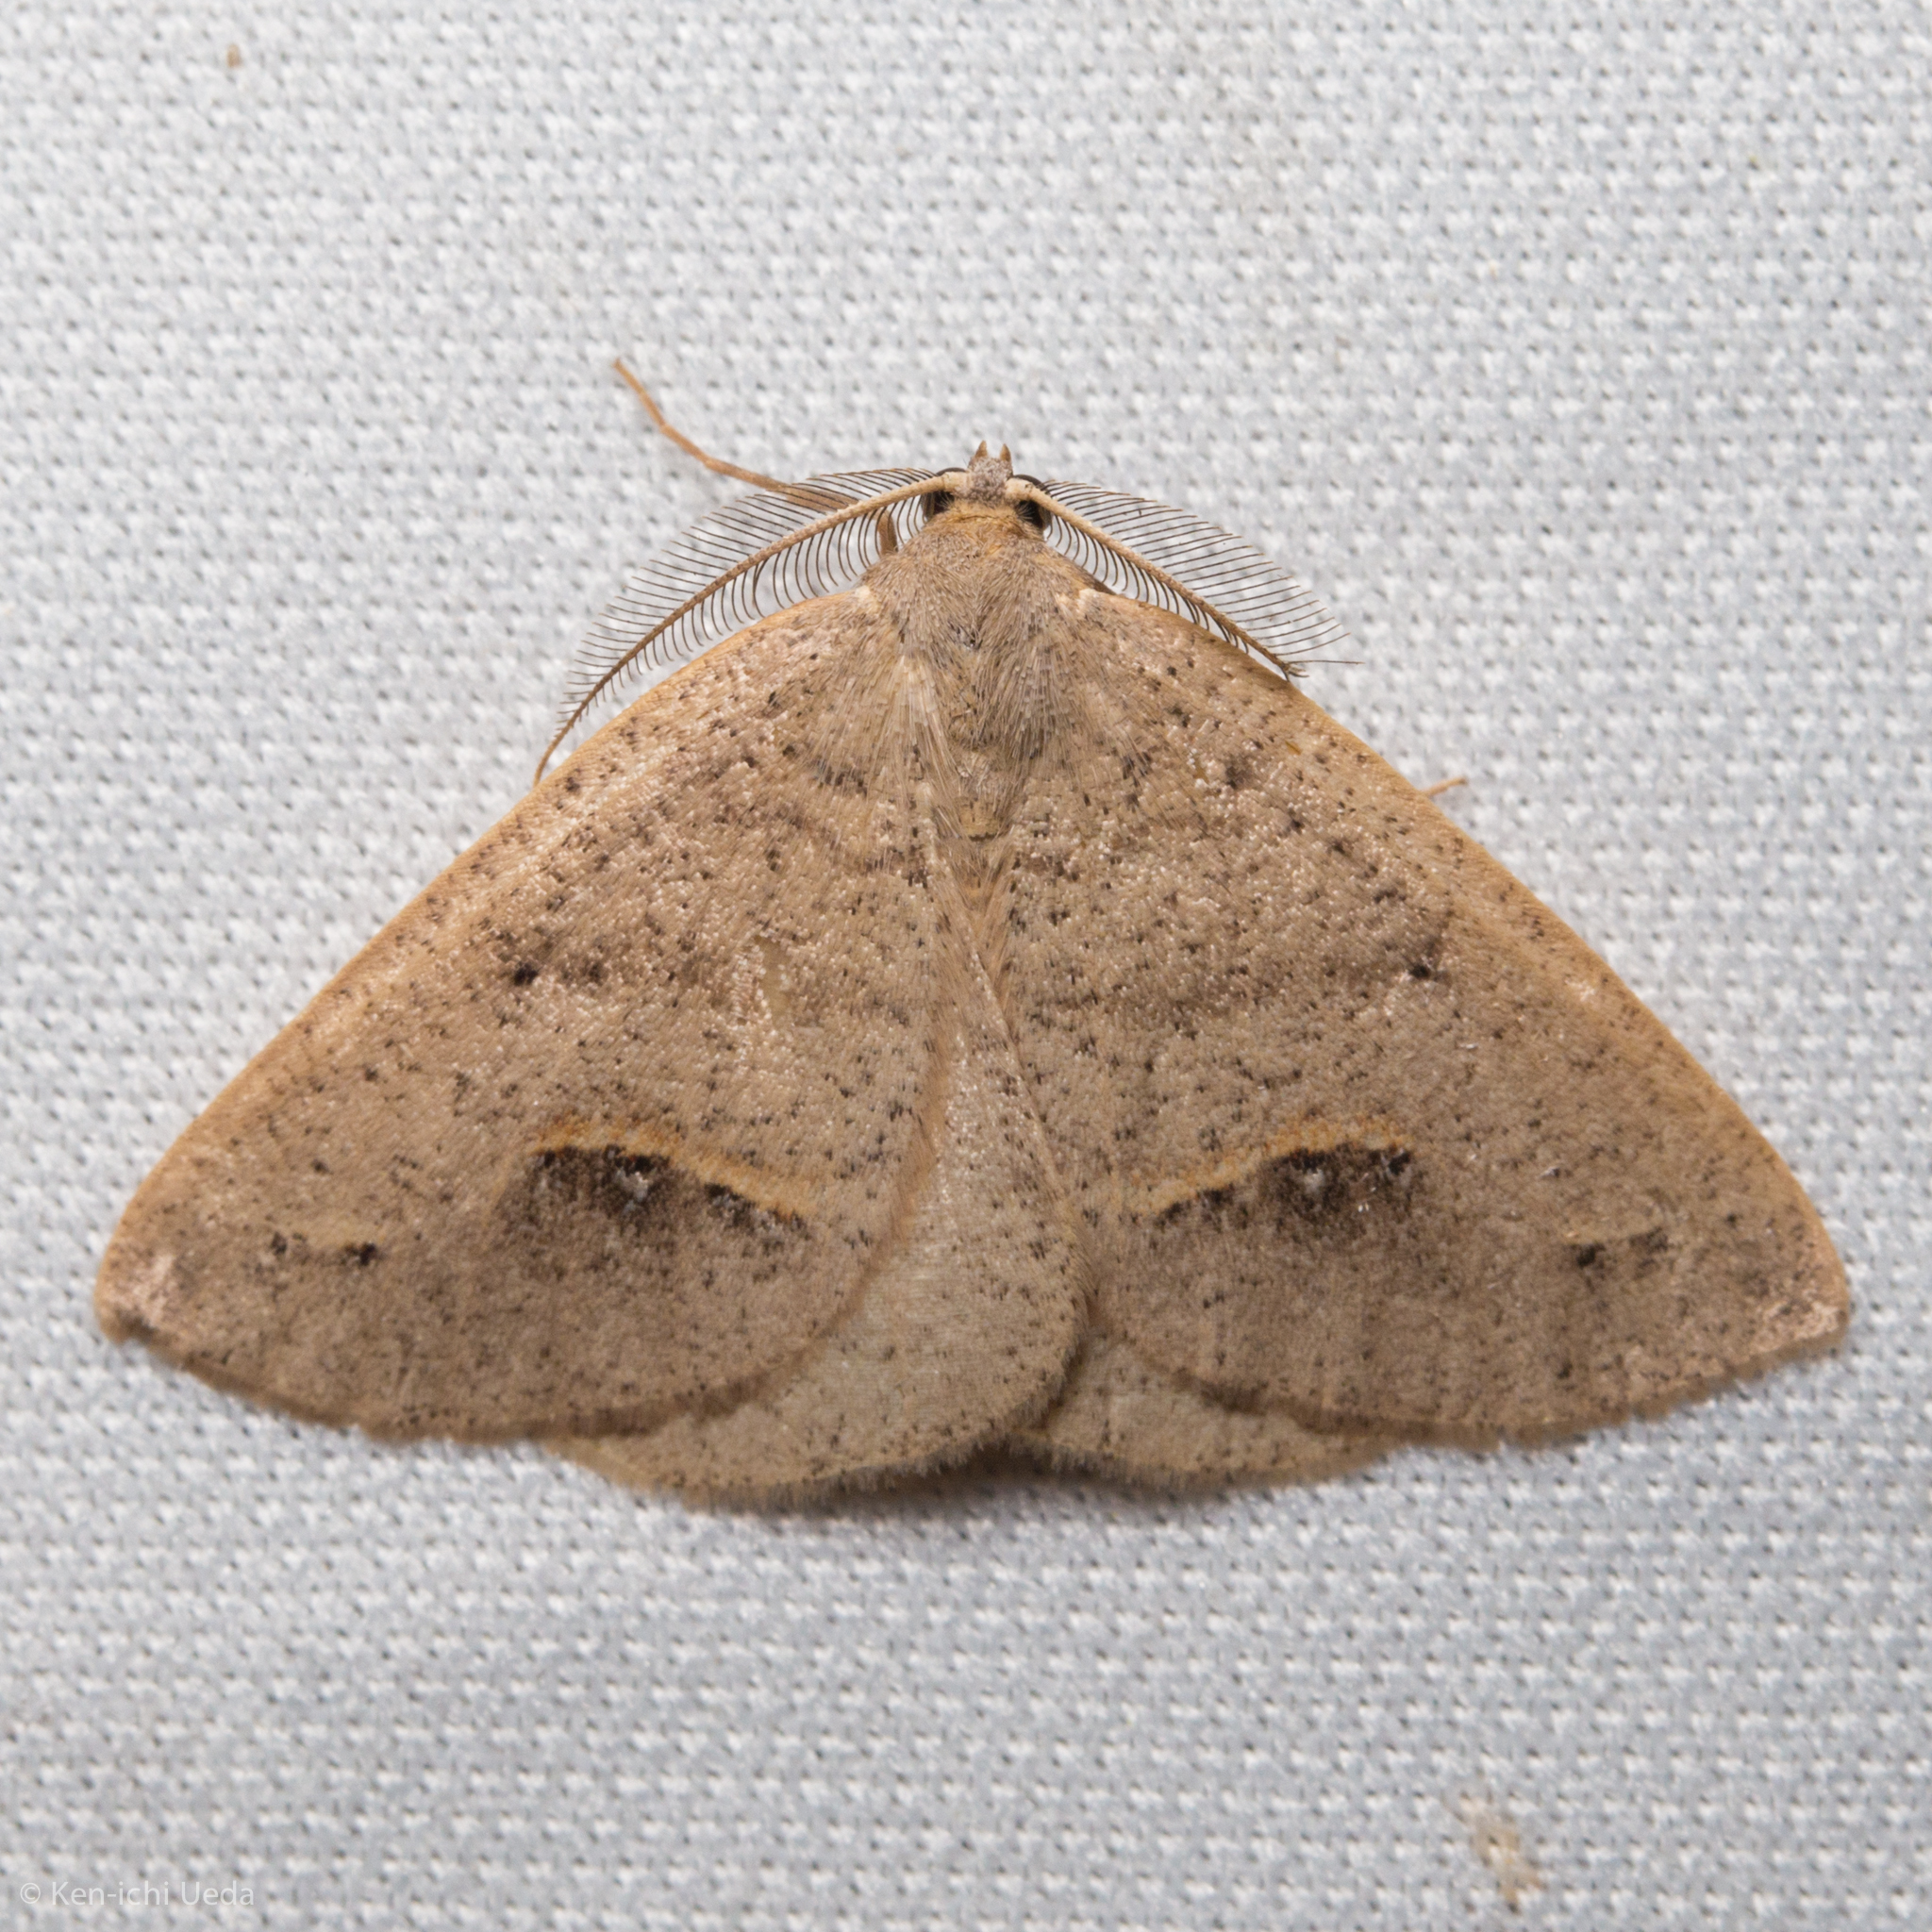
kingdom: Animalia
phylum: Arthropoda
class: Insecta
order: Lepidoptera
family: Geometridae
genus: Drepanulatrix
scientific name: Drepanulatrix unicalcararia
